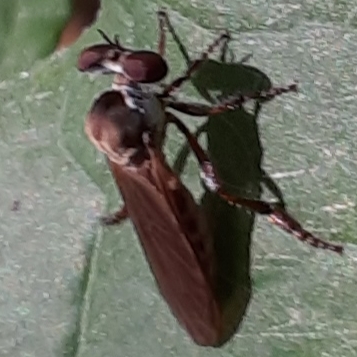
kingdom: Animalia
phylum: Arthropoda
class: Insecta
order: Diptera
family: Asilidae
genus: Holcocephala
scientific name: Holcocephala calva
